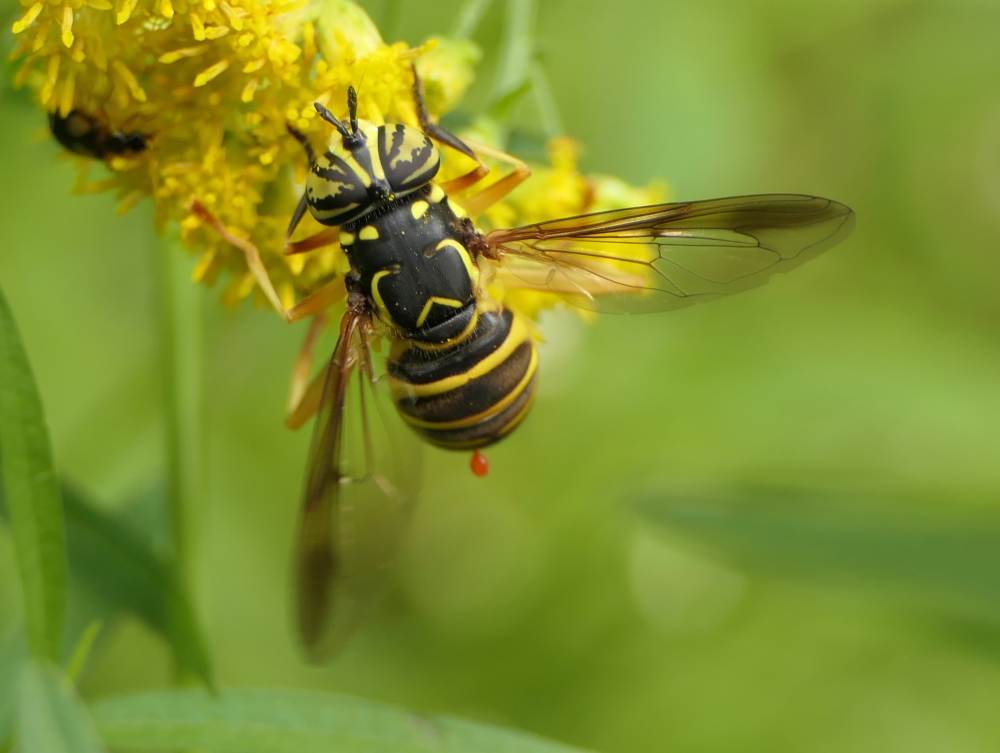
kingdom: Animalia
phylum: Arthropoda
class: Insecta
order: Diptera
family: Syrphidae
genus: Spilomyia
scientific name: Spilomyia longicornis
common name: Eastern hornet fly
